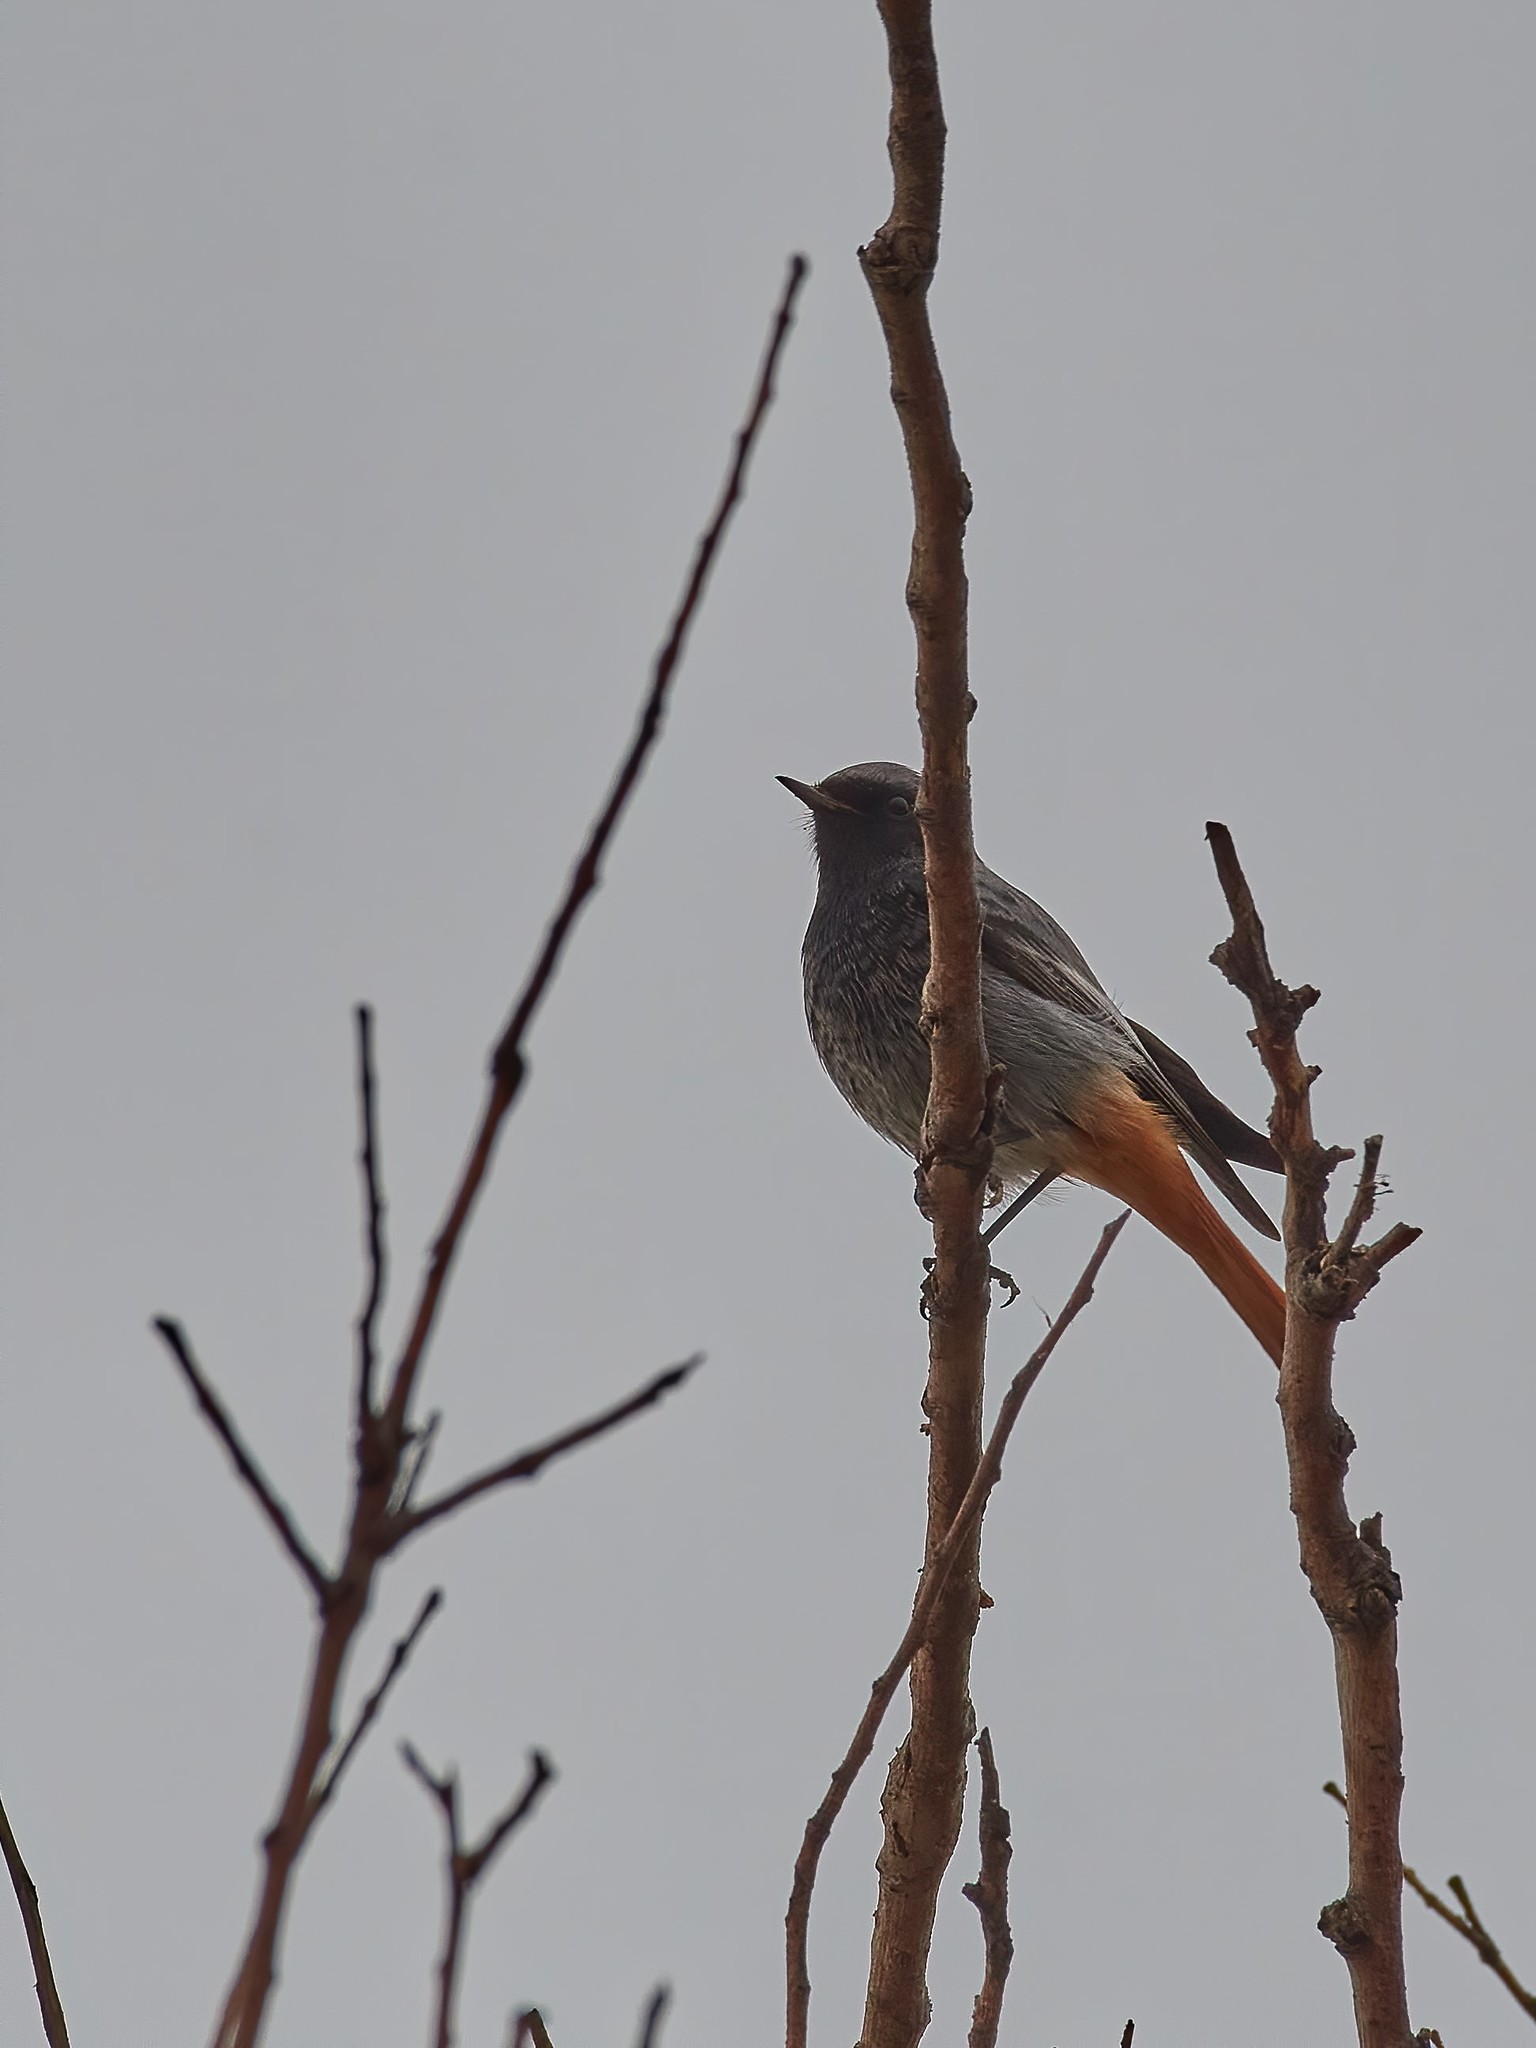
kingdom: Animalia
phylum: Chordata
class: Aves
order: Passeriformes
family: Muscicapidae
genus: Phoenicurus
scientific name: Phoenicurus ochruros
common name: Black redstart
